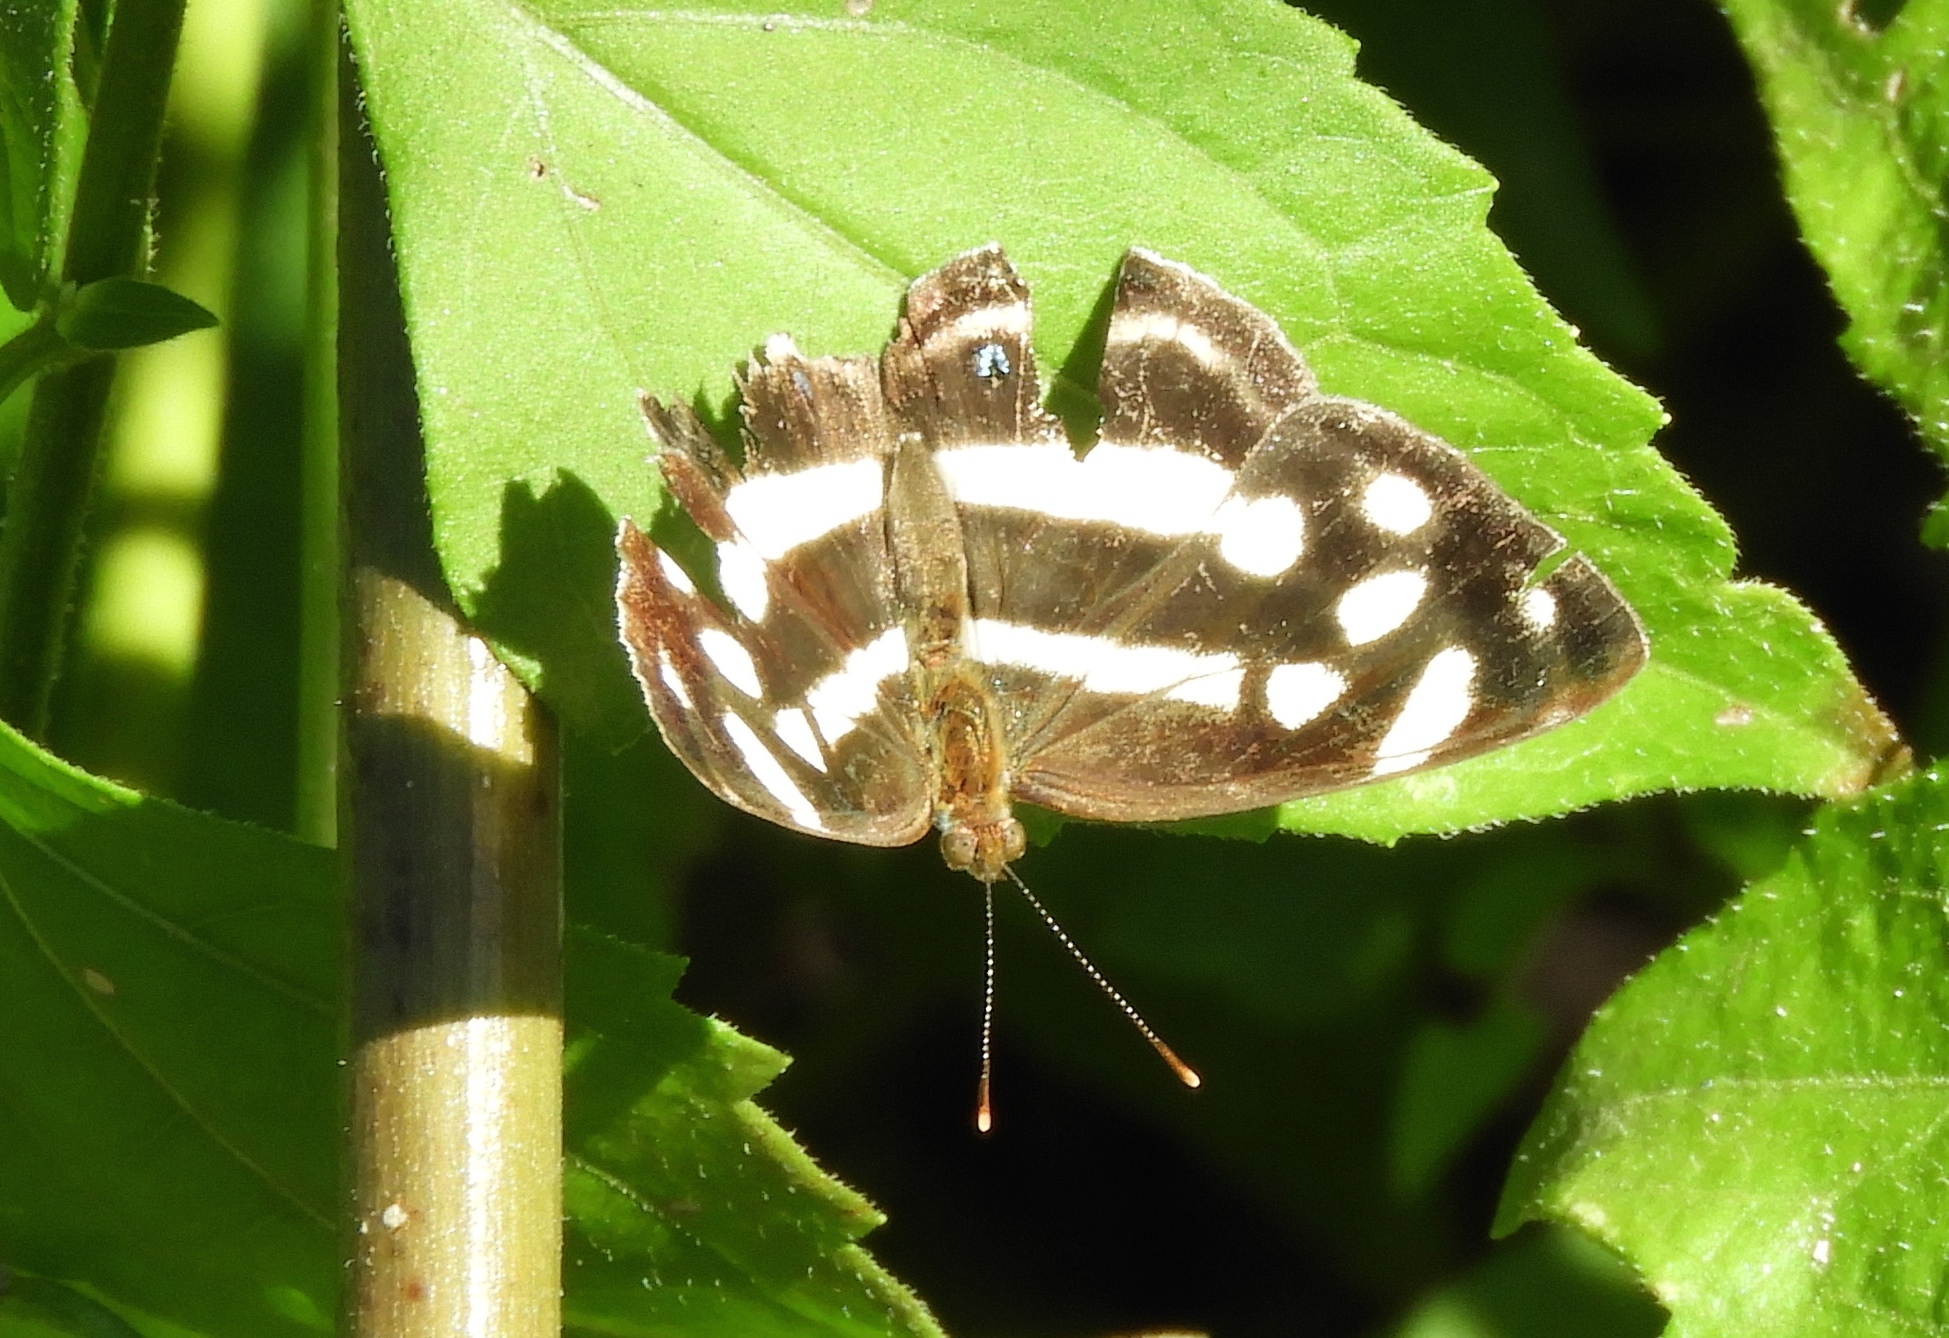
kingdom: Animalia
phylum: Arthropoda
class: Insecta
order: Lepidoptera
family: Nymphalidae
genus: Dynamine
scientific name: Dynamine mylitta
